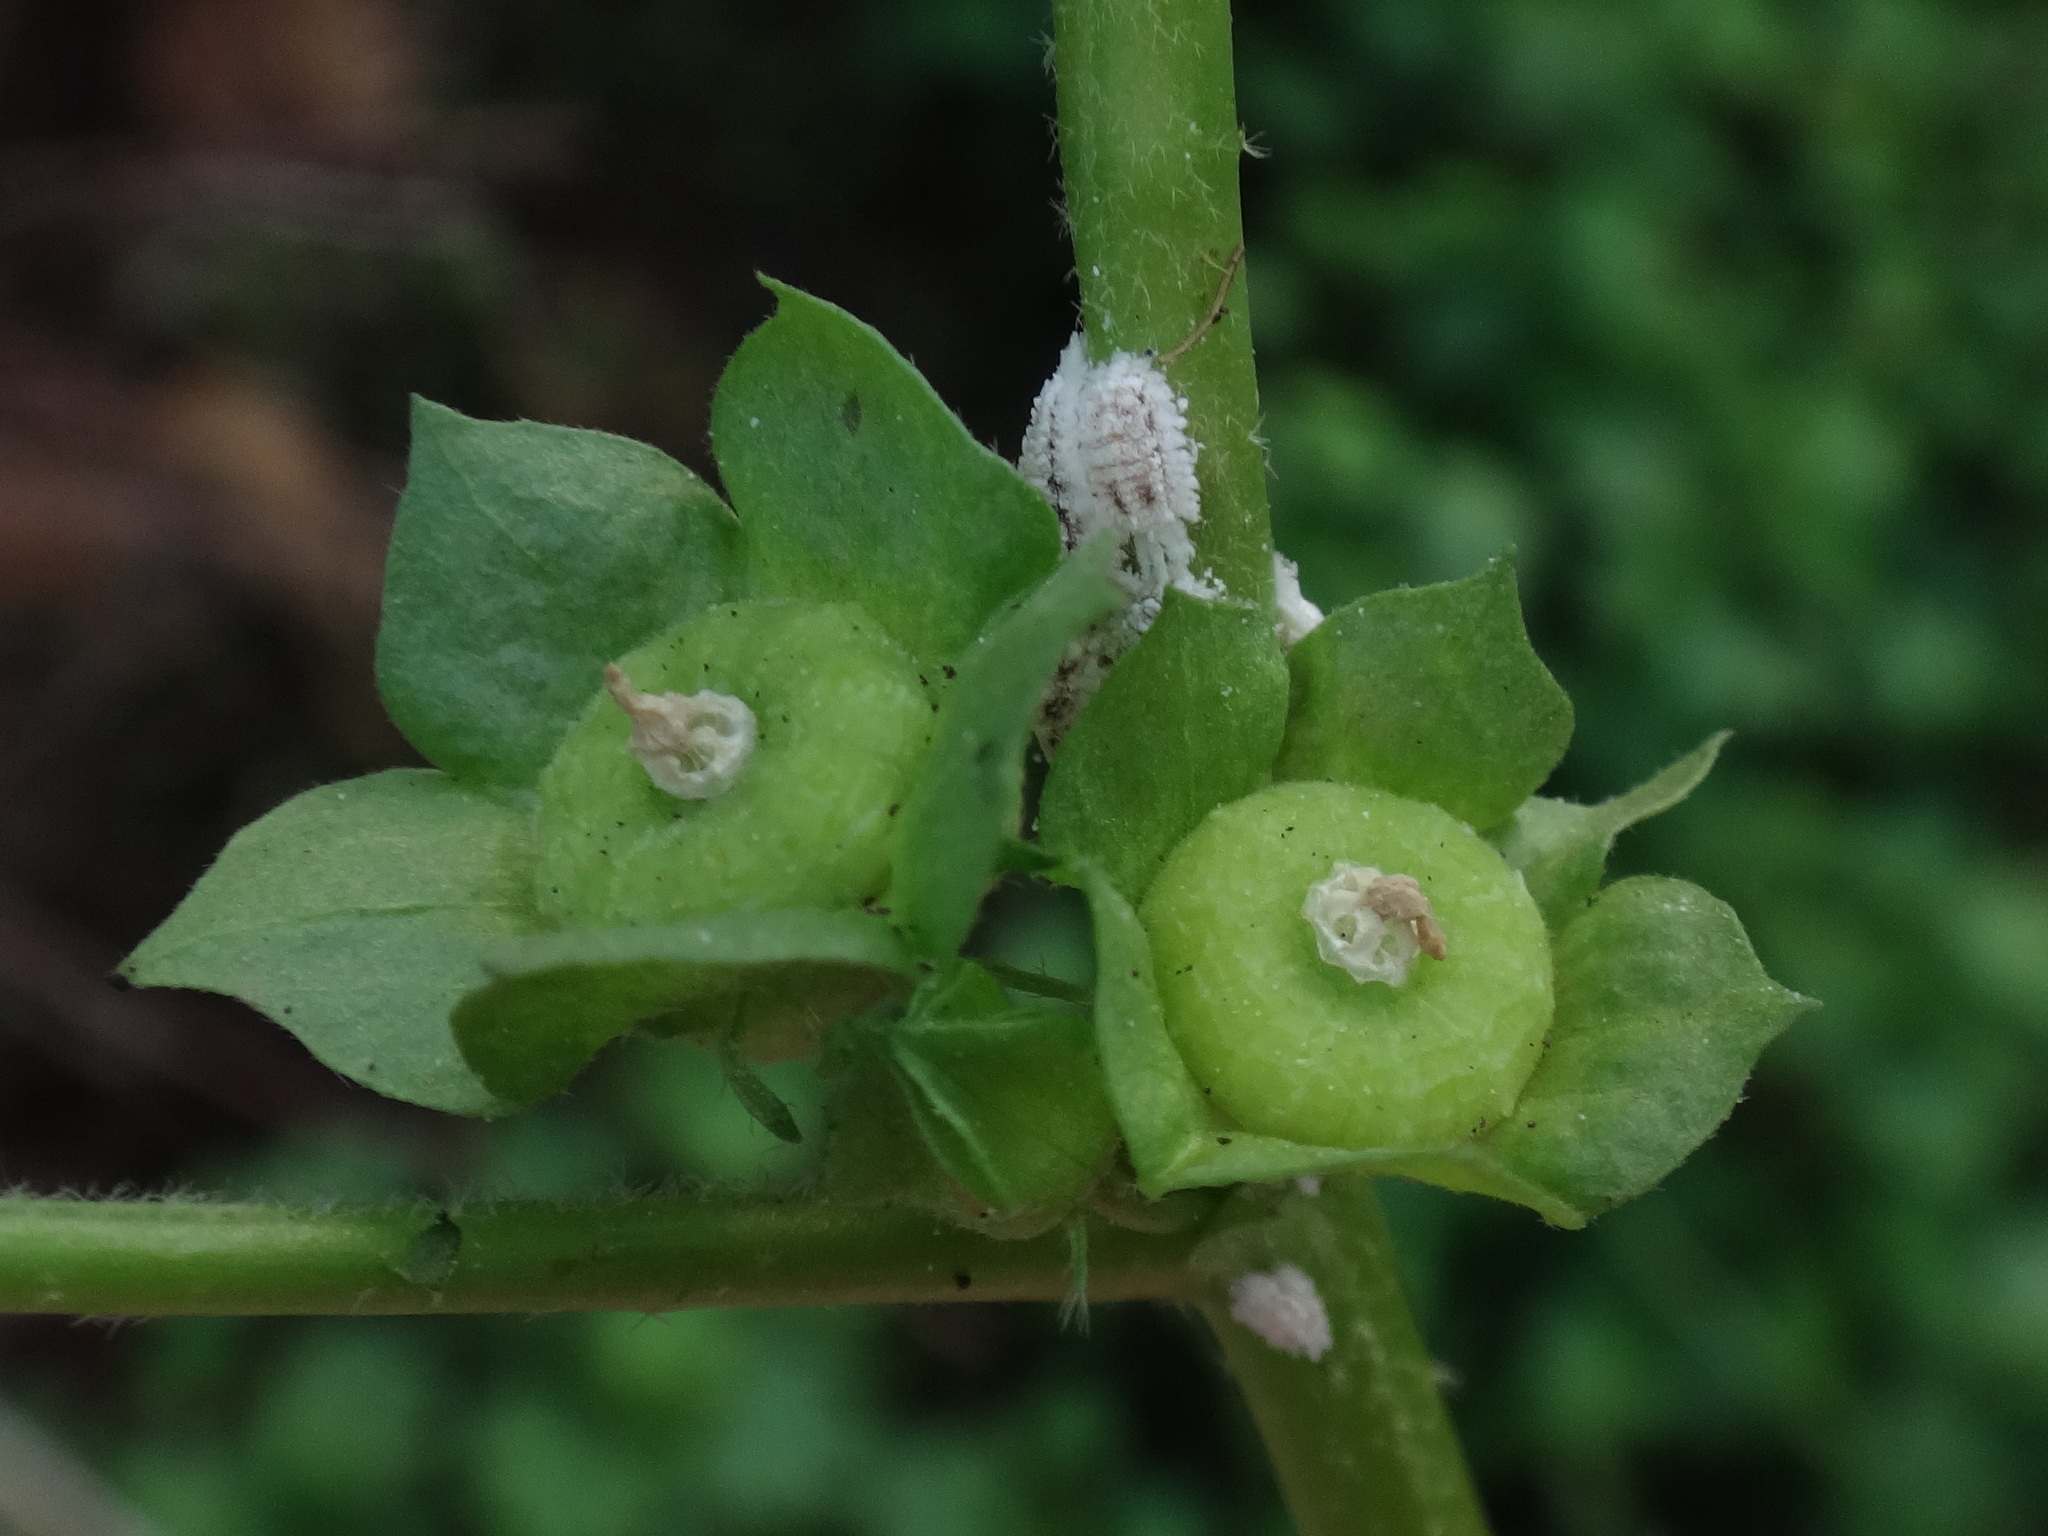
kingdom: Plantae
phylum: Tracheophyta
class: Magnoliopsida
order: Malvales
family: Malvaceae
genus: Malva
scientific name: Malva parviflora
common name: Least mallow
